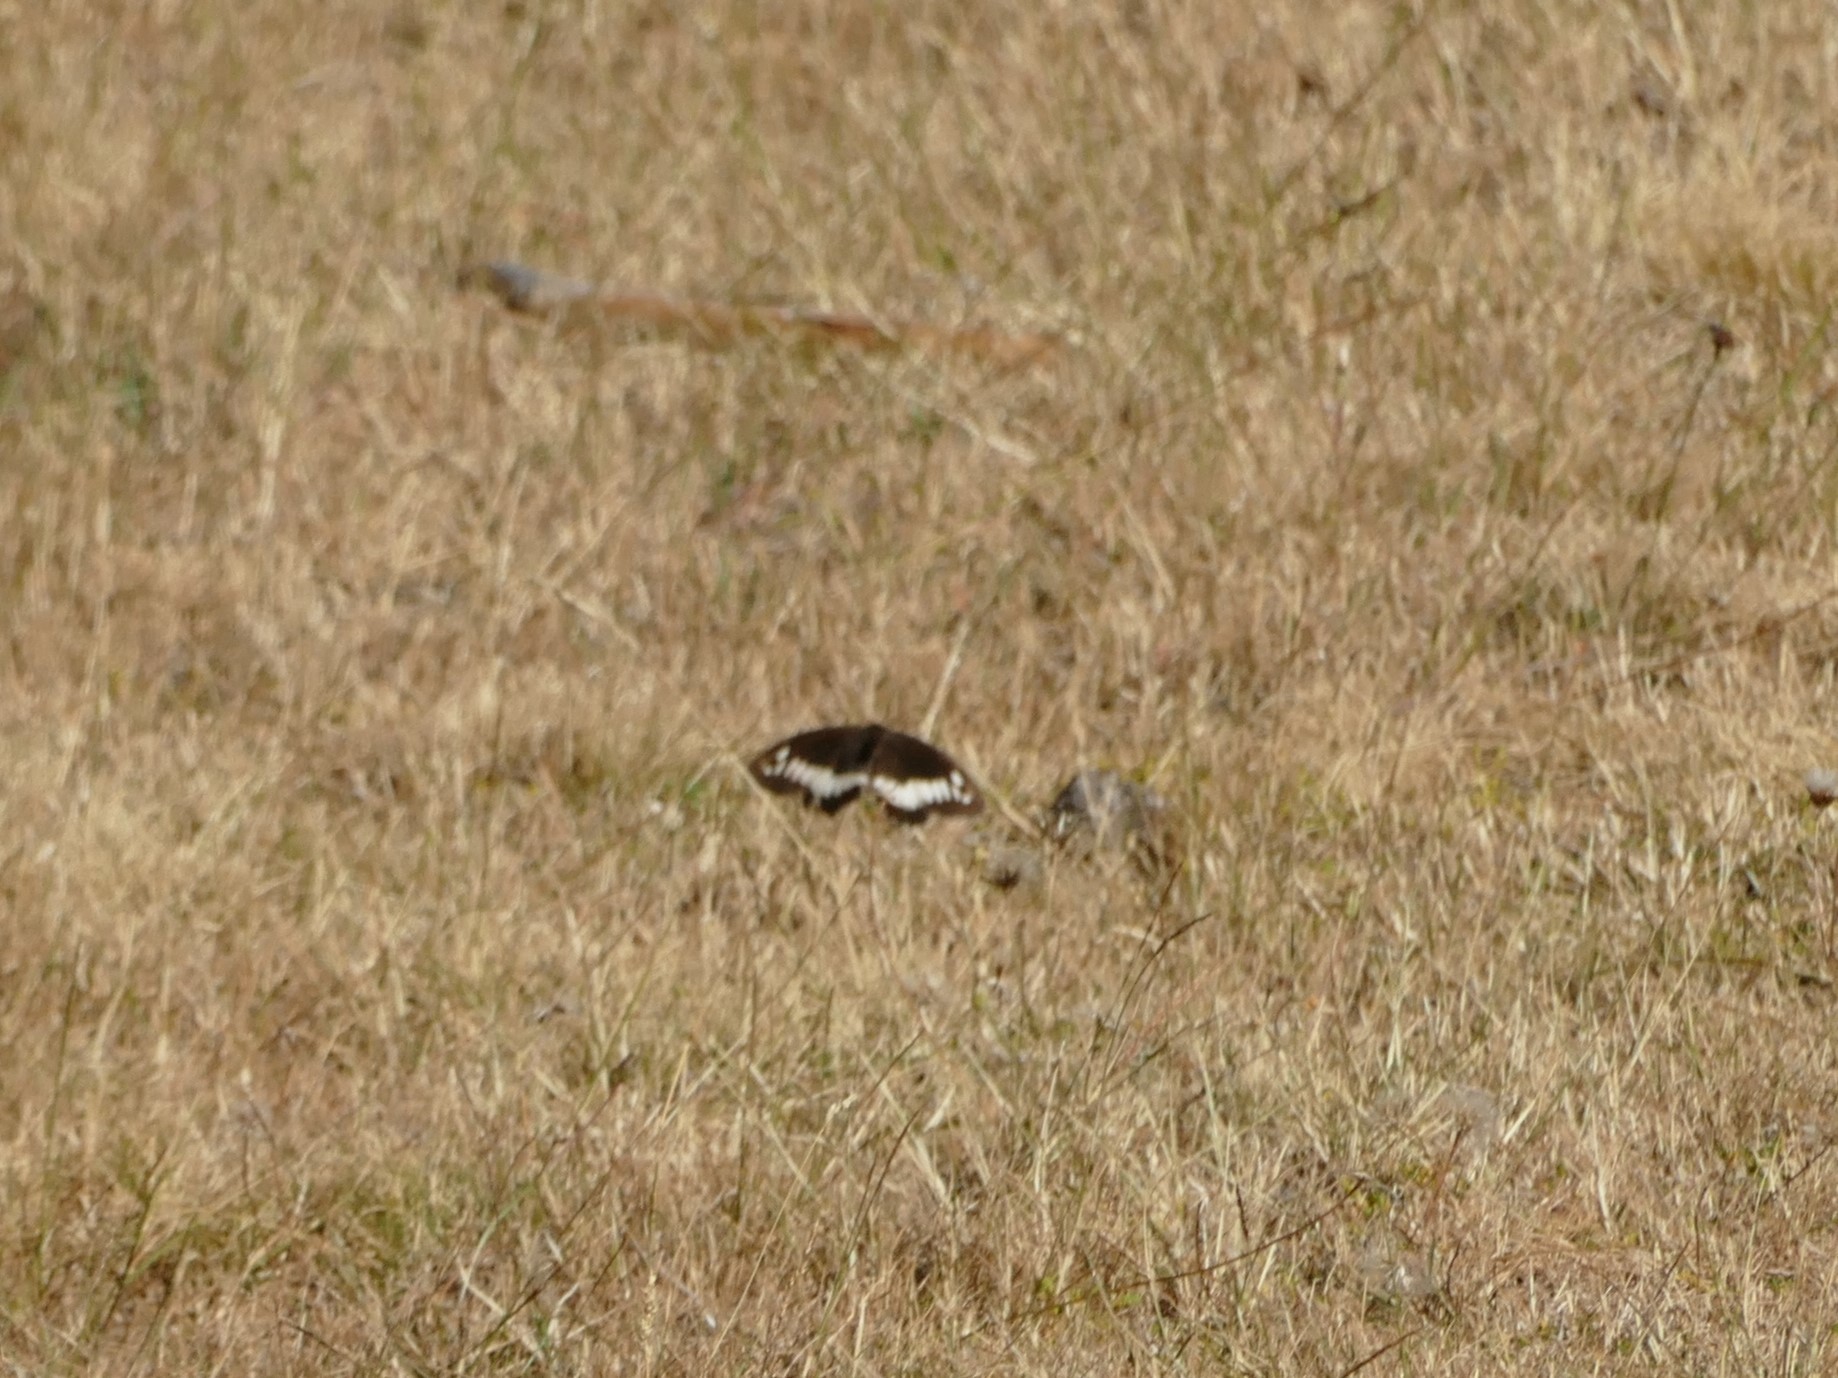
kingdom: Animalia
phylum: Arthropoda
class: Insecta
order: Lepidoptera
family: Lycaenidae
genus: Loweia
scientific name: Loweia tityrus
